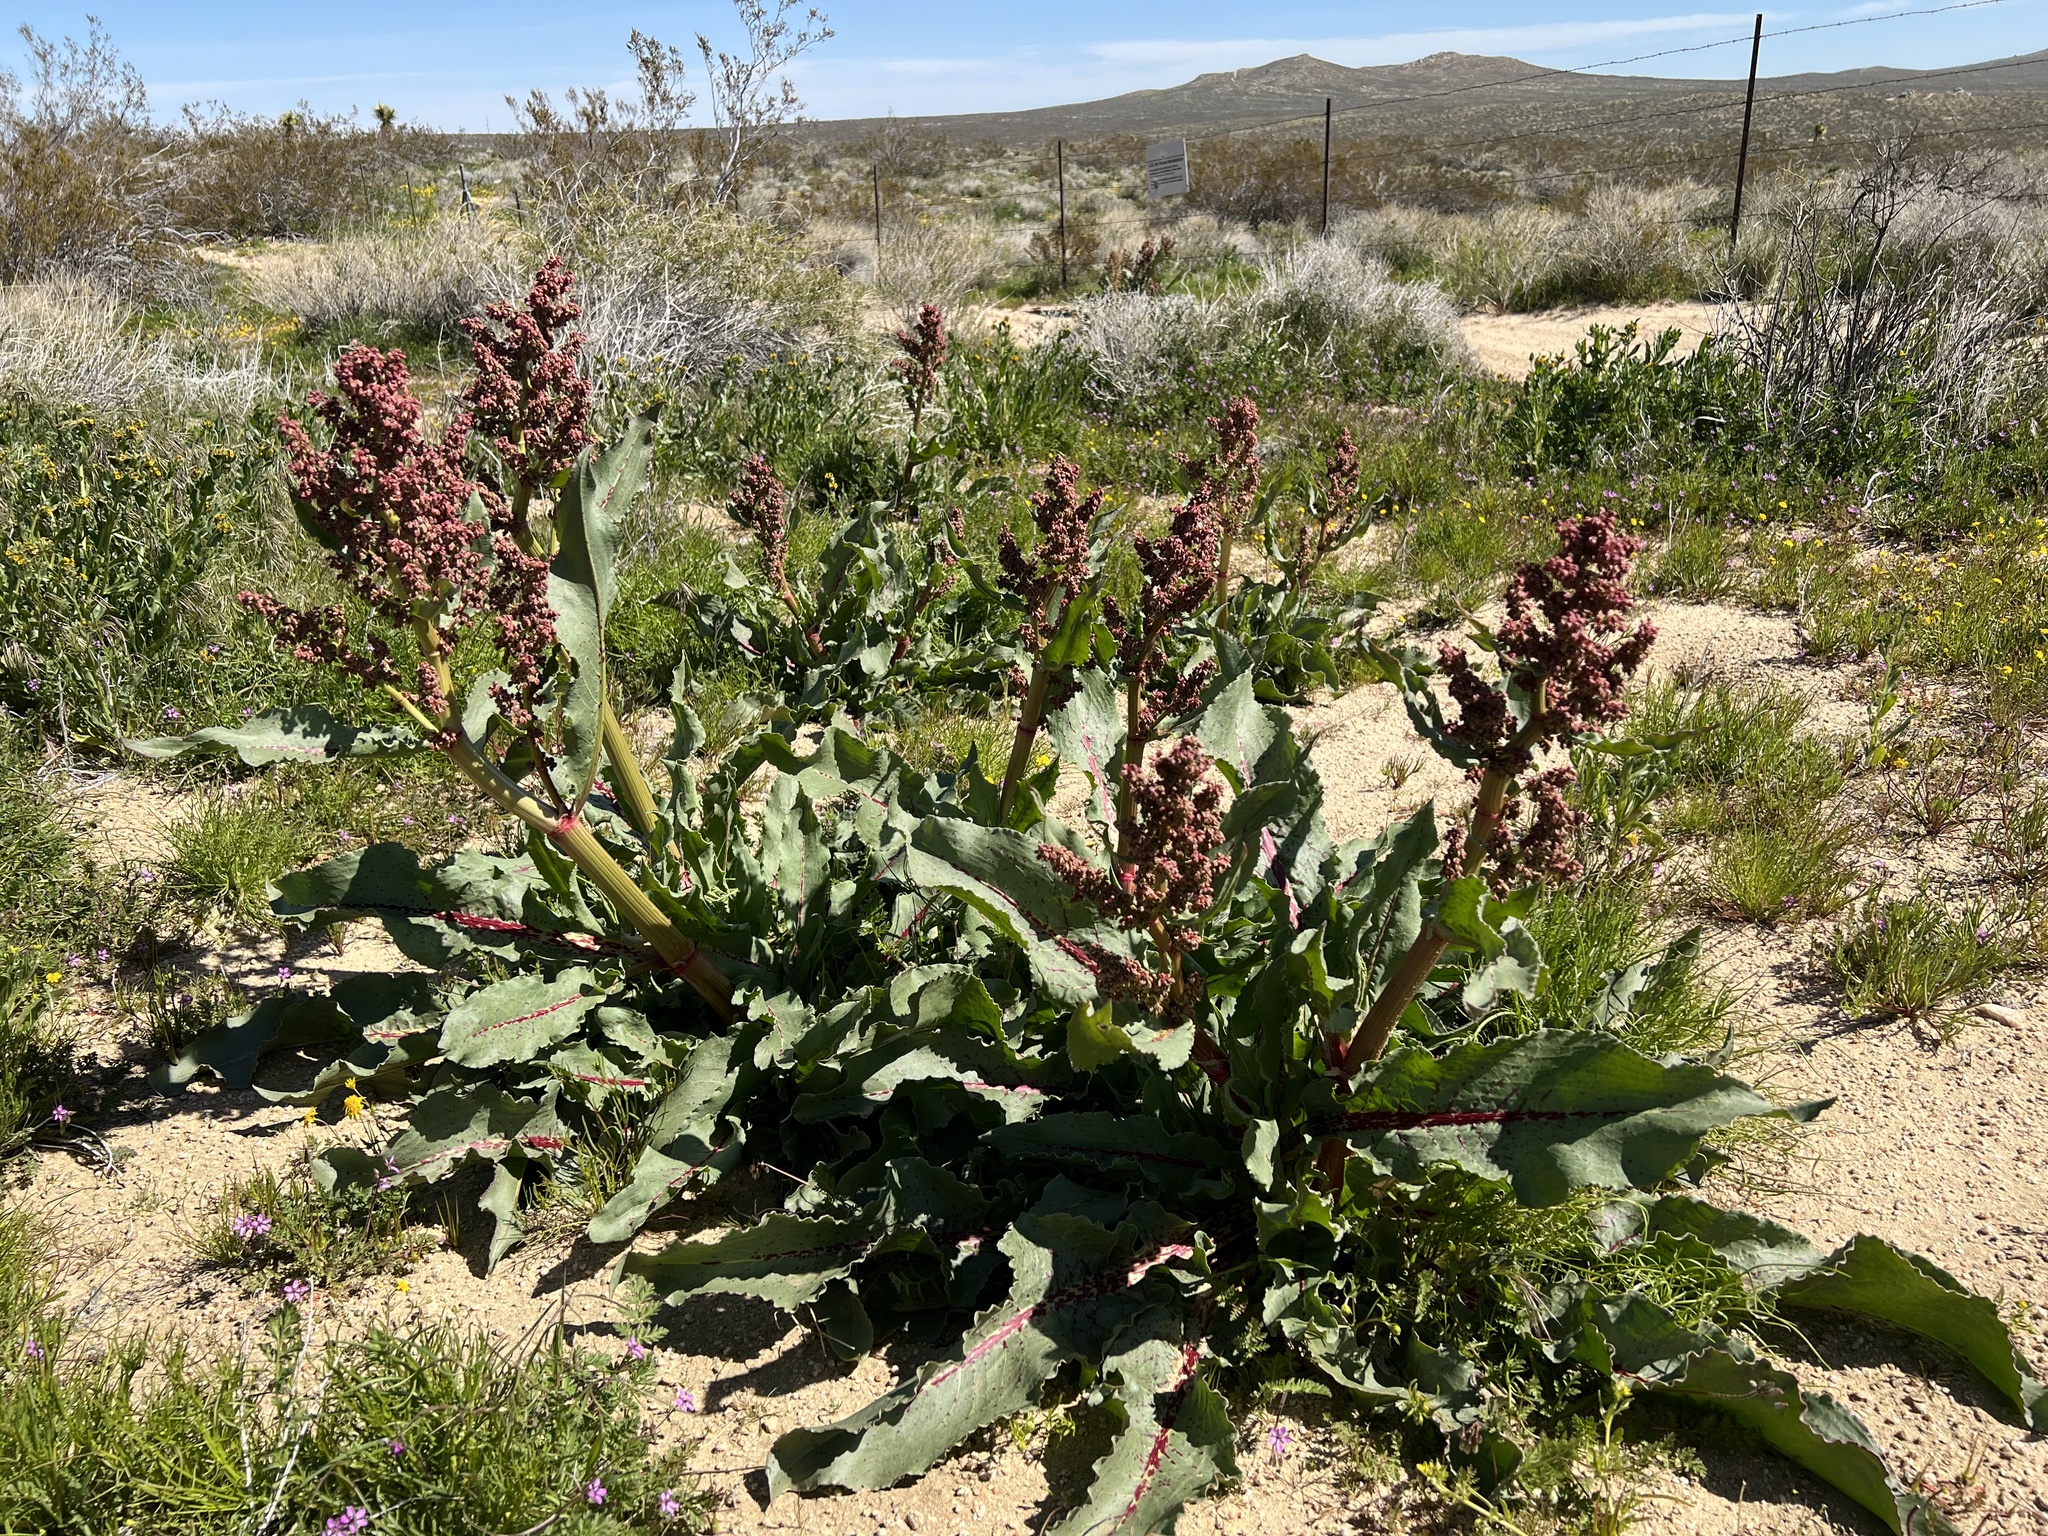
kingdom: Plantae
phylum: Tracheophyta
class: Magnoliopsida
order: Caryophyllales
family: Polygonaceae
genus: Rumex
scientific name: Rumex hymenosepalus
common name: Ganagra
